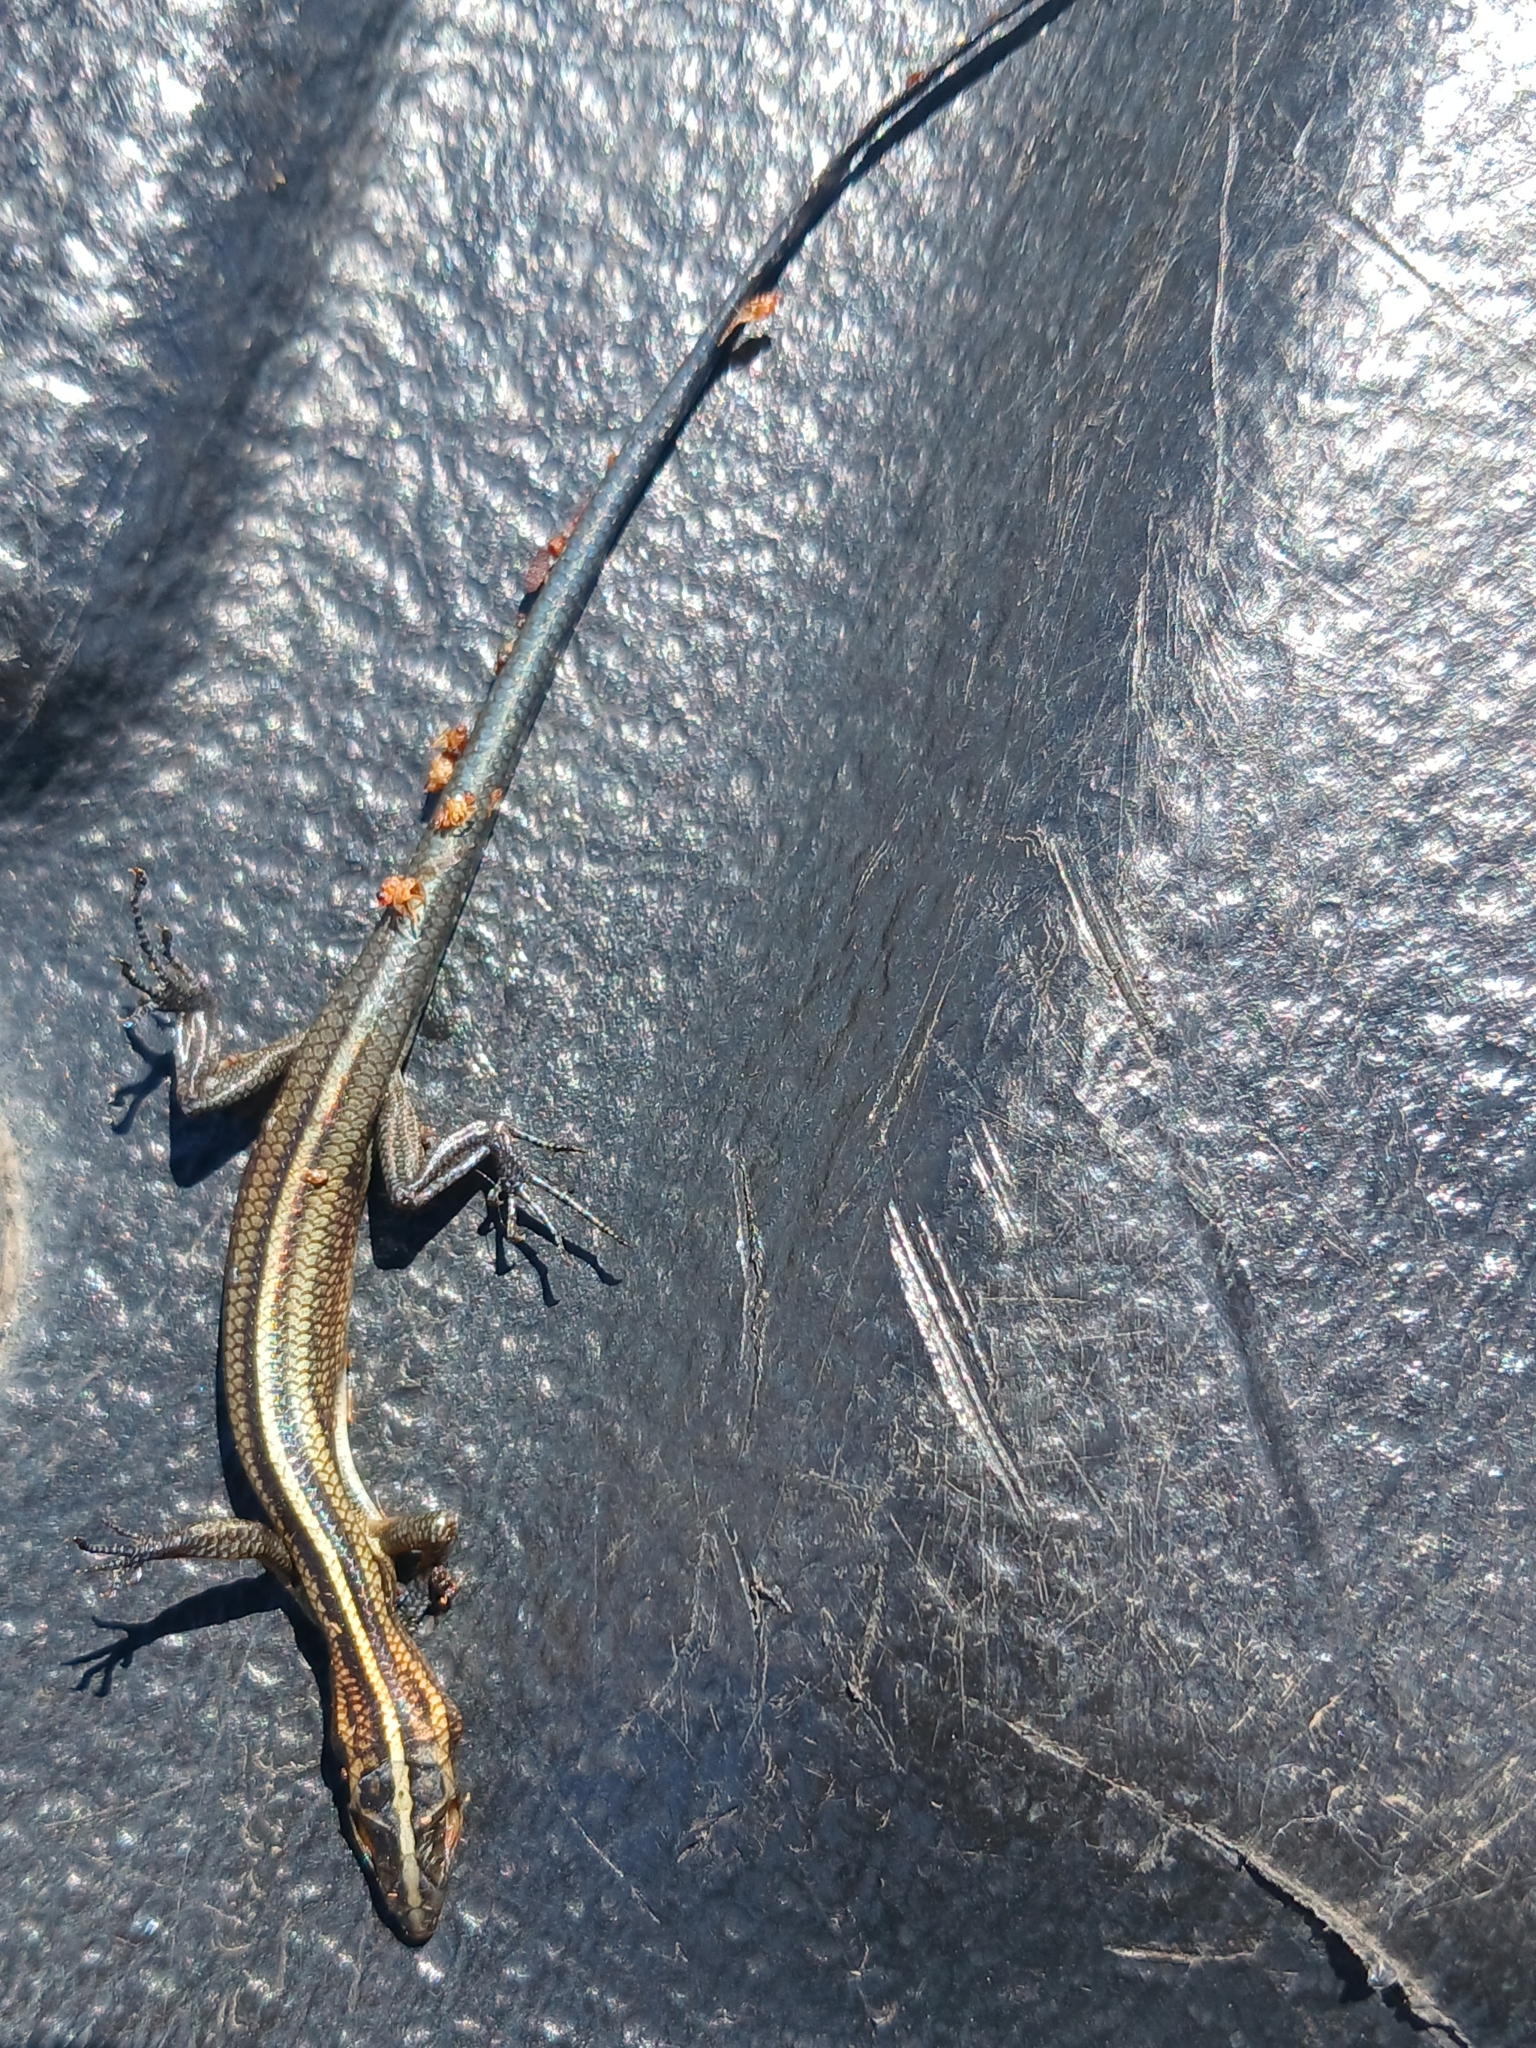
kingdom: Animalia
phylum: Chordata
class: Squamata
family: Scincidae
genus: Emoia
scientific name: Emoia cyanura
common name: Copper-tailed skink
